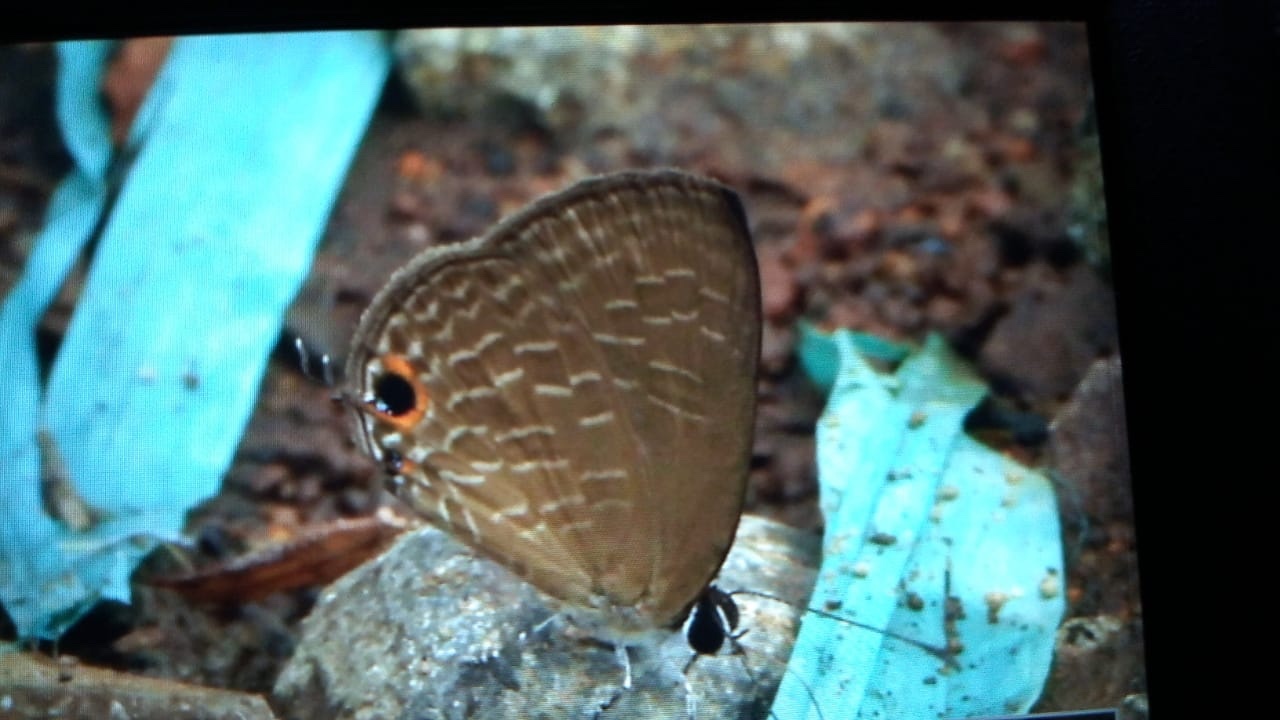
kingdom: Animalia
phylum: Arthropoda
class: Insecta
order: Lepidoptera
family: Lycaenidae
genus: Jamides
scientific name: Jamides bochus
